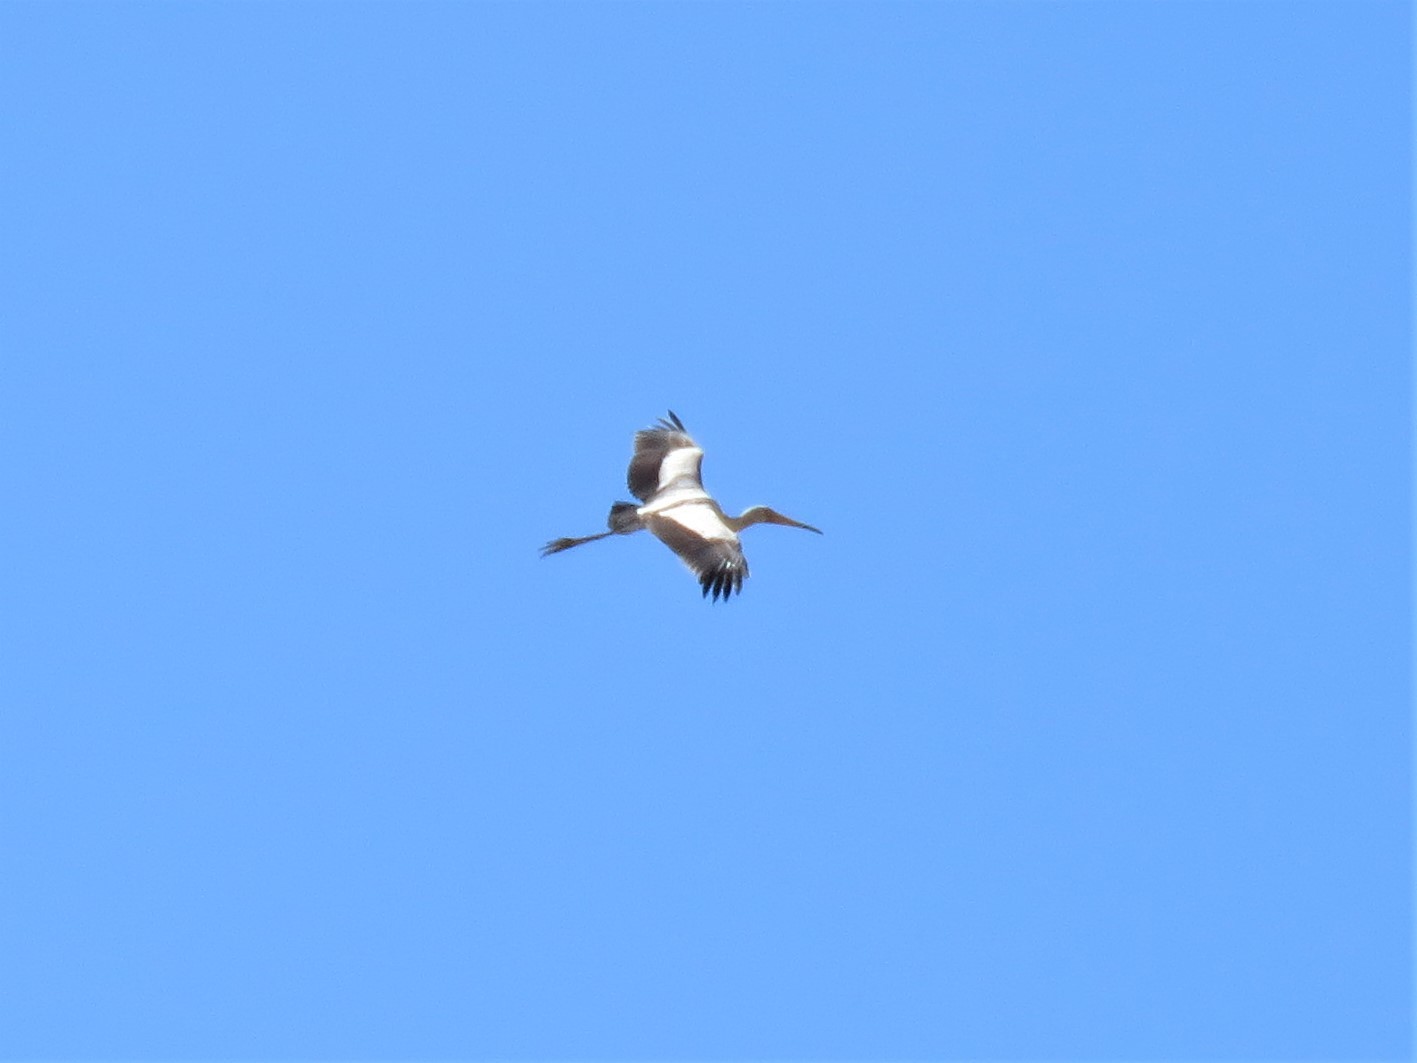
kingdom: Animalia
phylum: Chordata
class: Aves
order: Ciconiiformes
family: Ciconiidae
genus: Mycteria
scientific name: Mycteria ibis
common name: Yellow-billed stork
